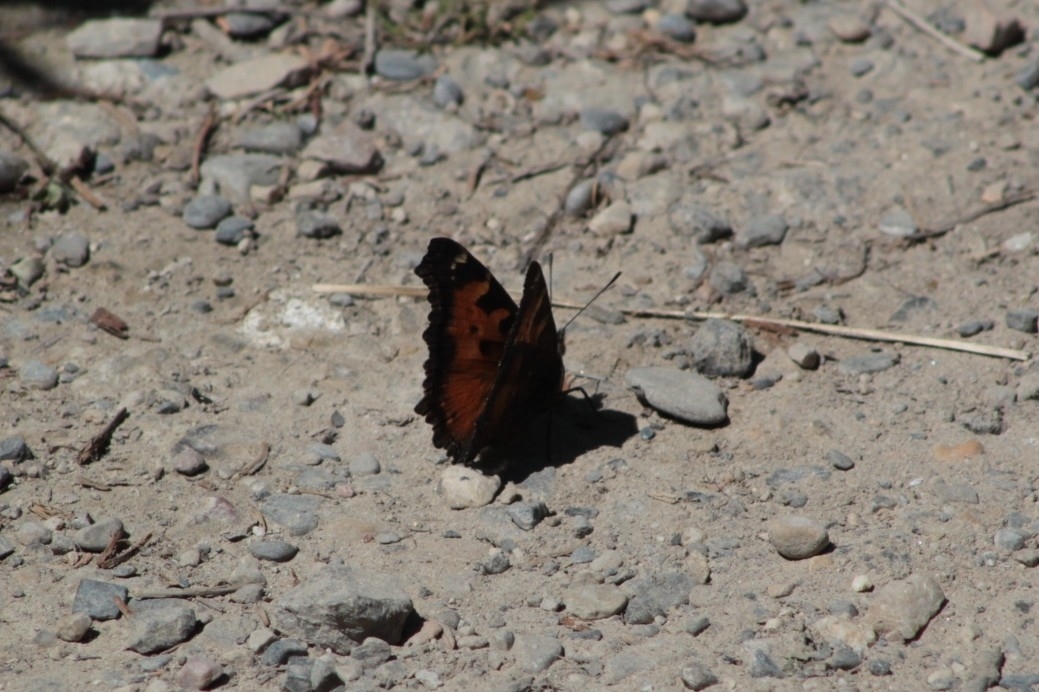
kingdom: Animalia
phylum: Arthropoda
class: Insecta
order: Lepidoptera
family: Nymphalidae
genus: Nymphalis
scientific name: Nymphalis californica
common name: California tortoiseshell
